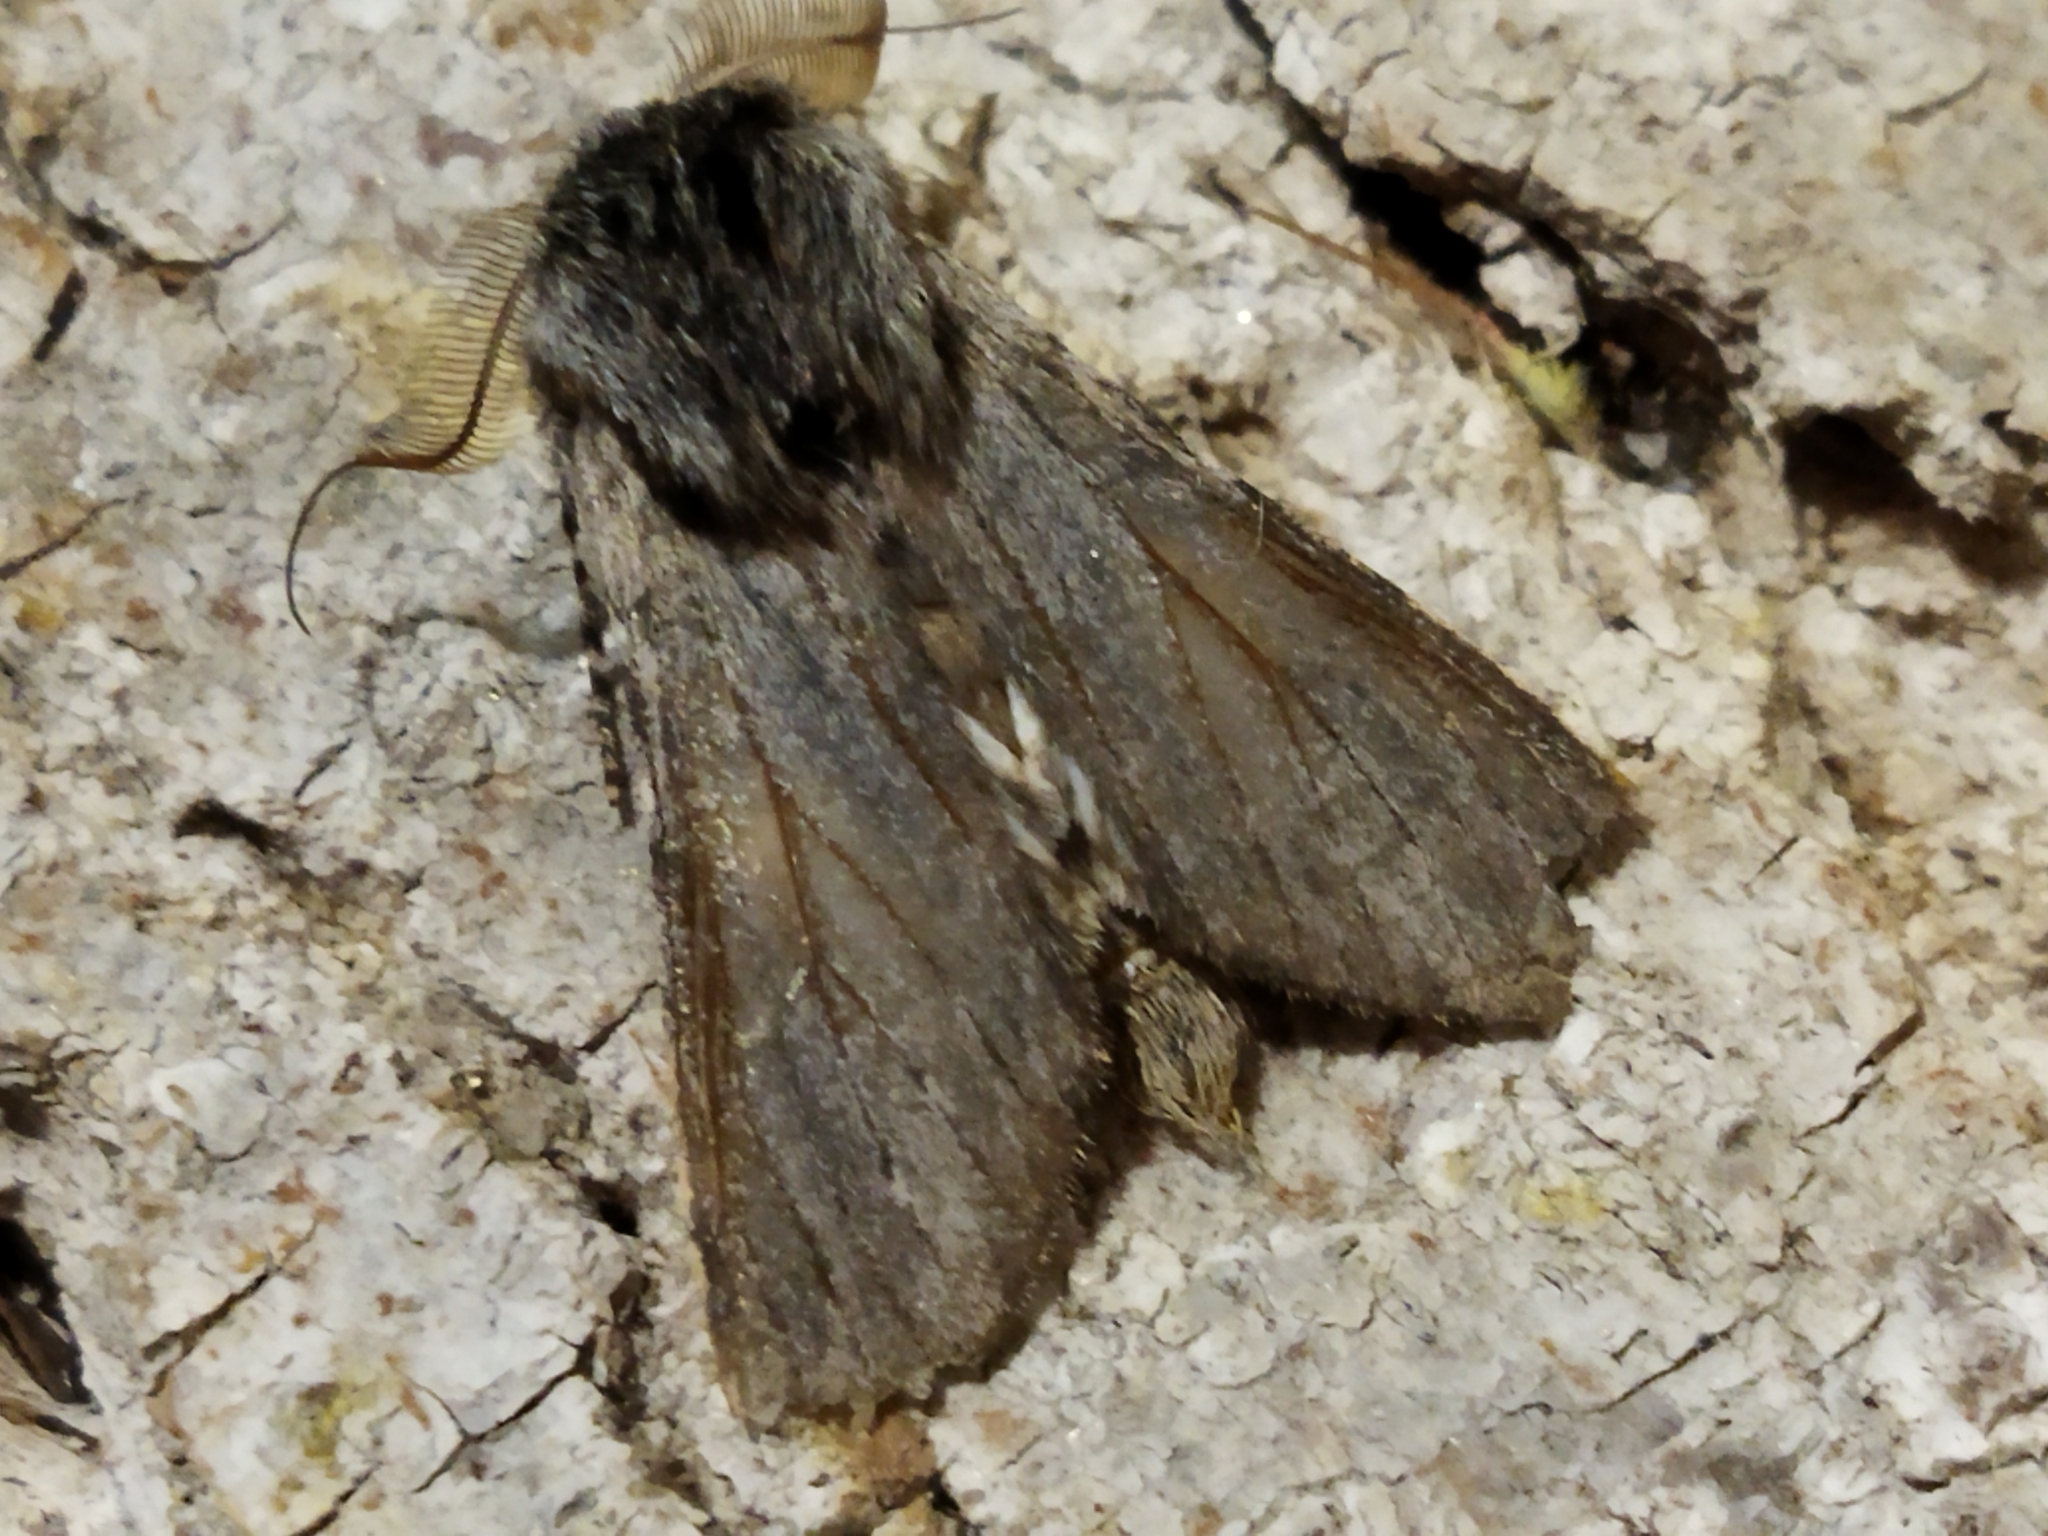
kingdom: Animalia
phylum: Arthropoda
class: Insecta
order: Lepidoptera
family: Notodontidae
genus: Dicranura
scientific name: Dicranura ulmi
